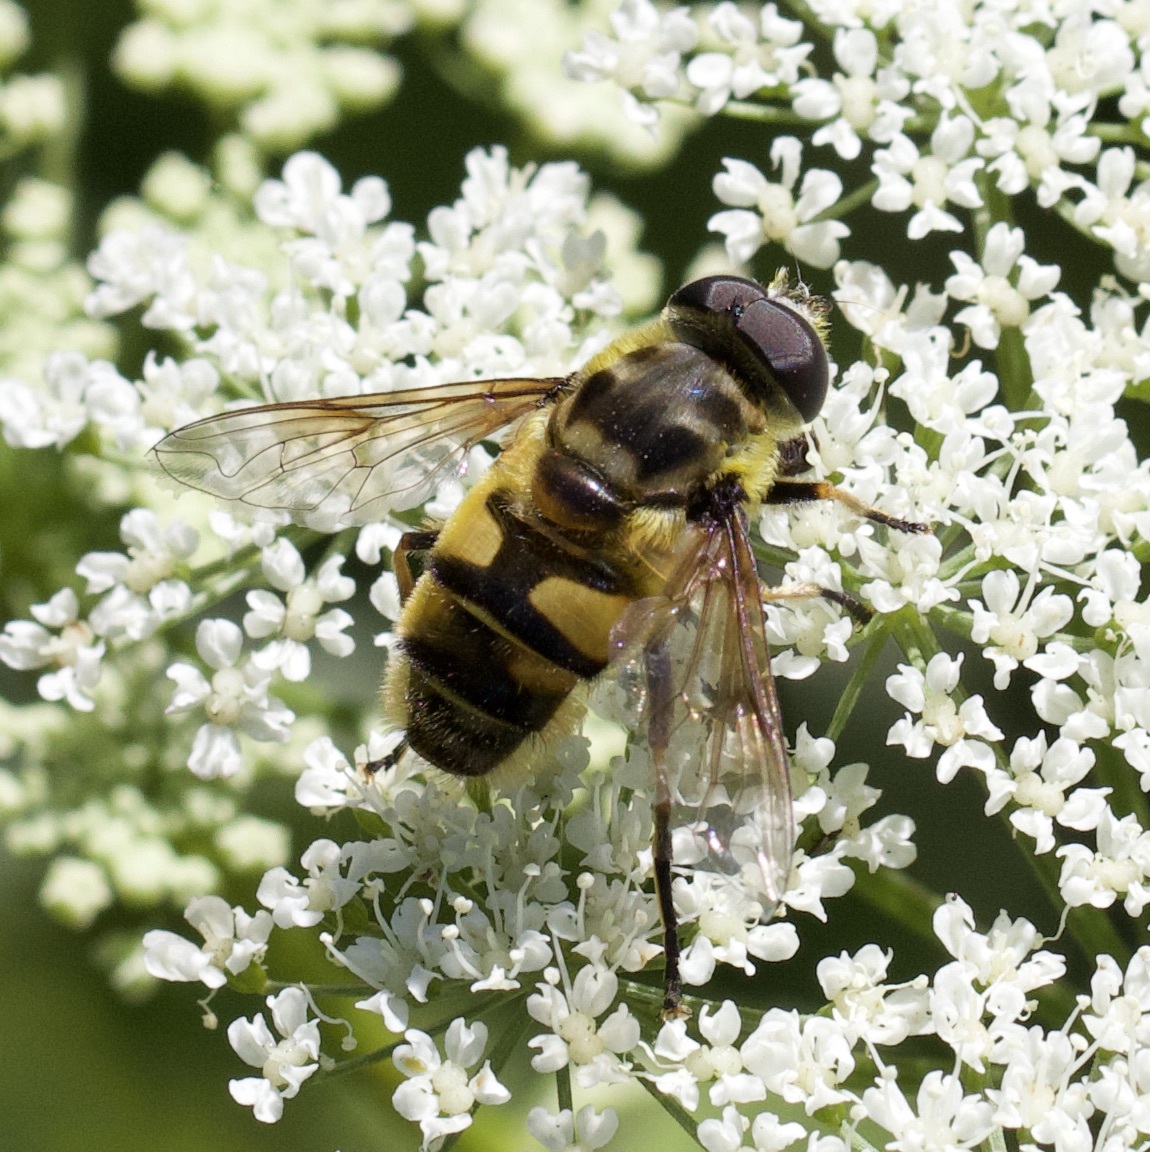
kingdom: Animalia
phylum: Arthropoda
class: Insecta
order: Diptera
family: Syrphidae
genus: Myathropa
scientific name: Myathropa florea
